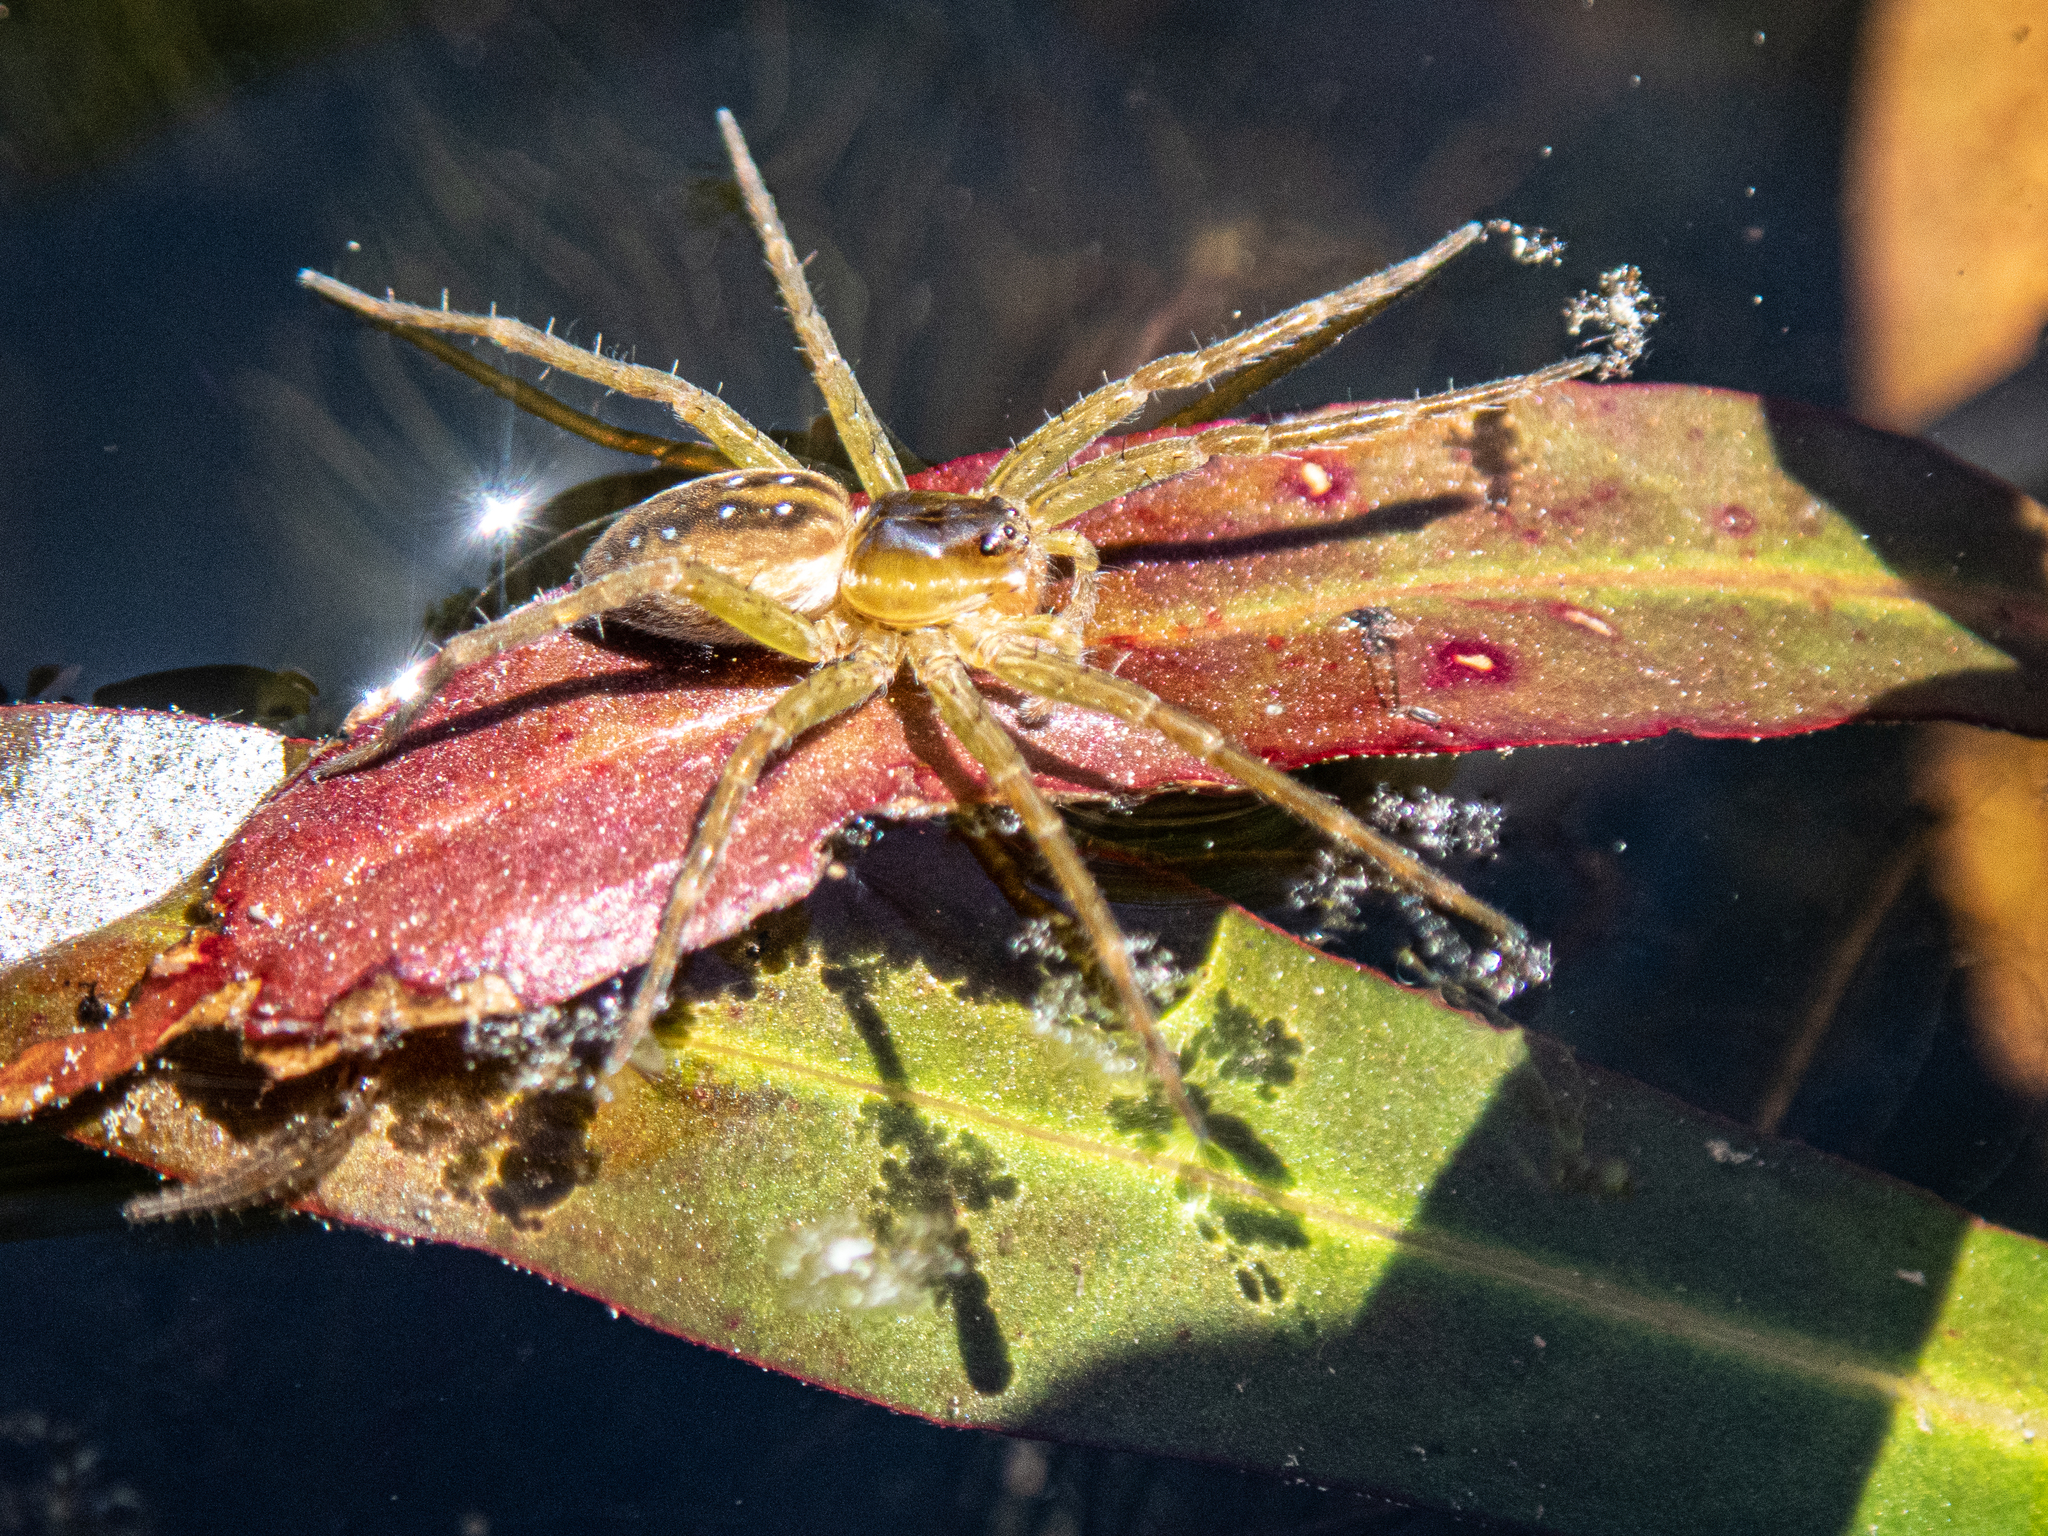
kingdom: Animalia
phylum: Arthropoda
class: Arachnida
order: Araneae
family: Pisauridae
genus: Dolomedes
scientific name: Dolomedes triton
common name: Six-spotted fishing spider
